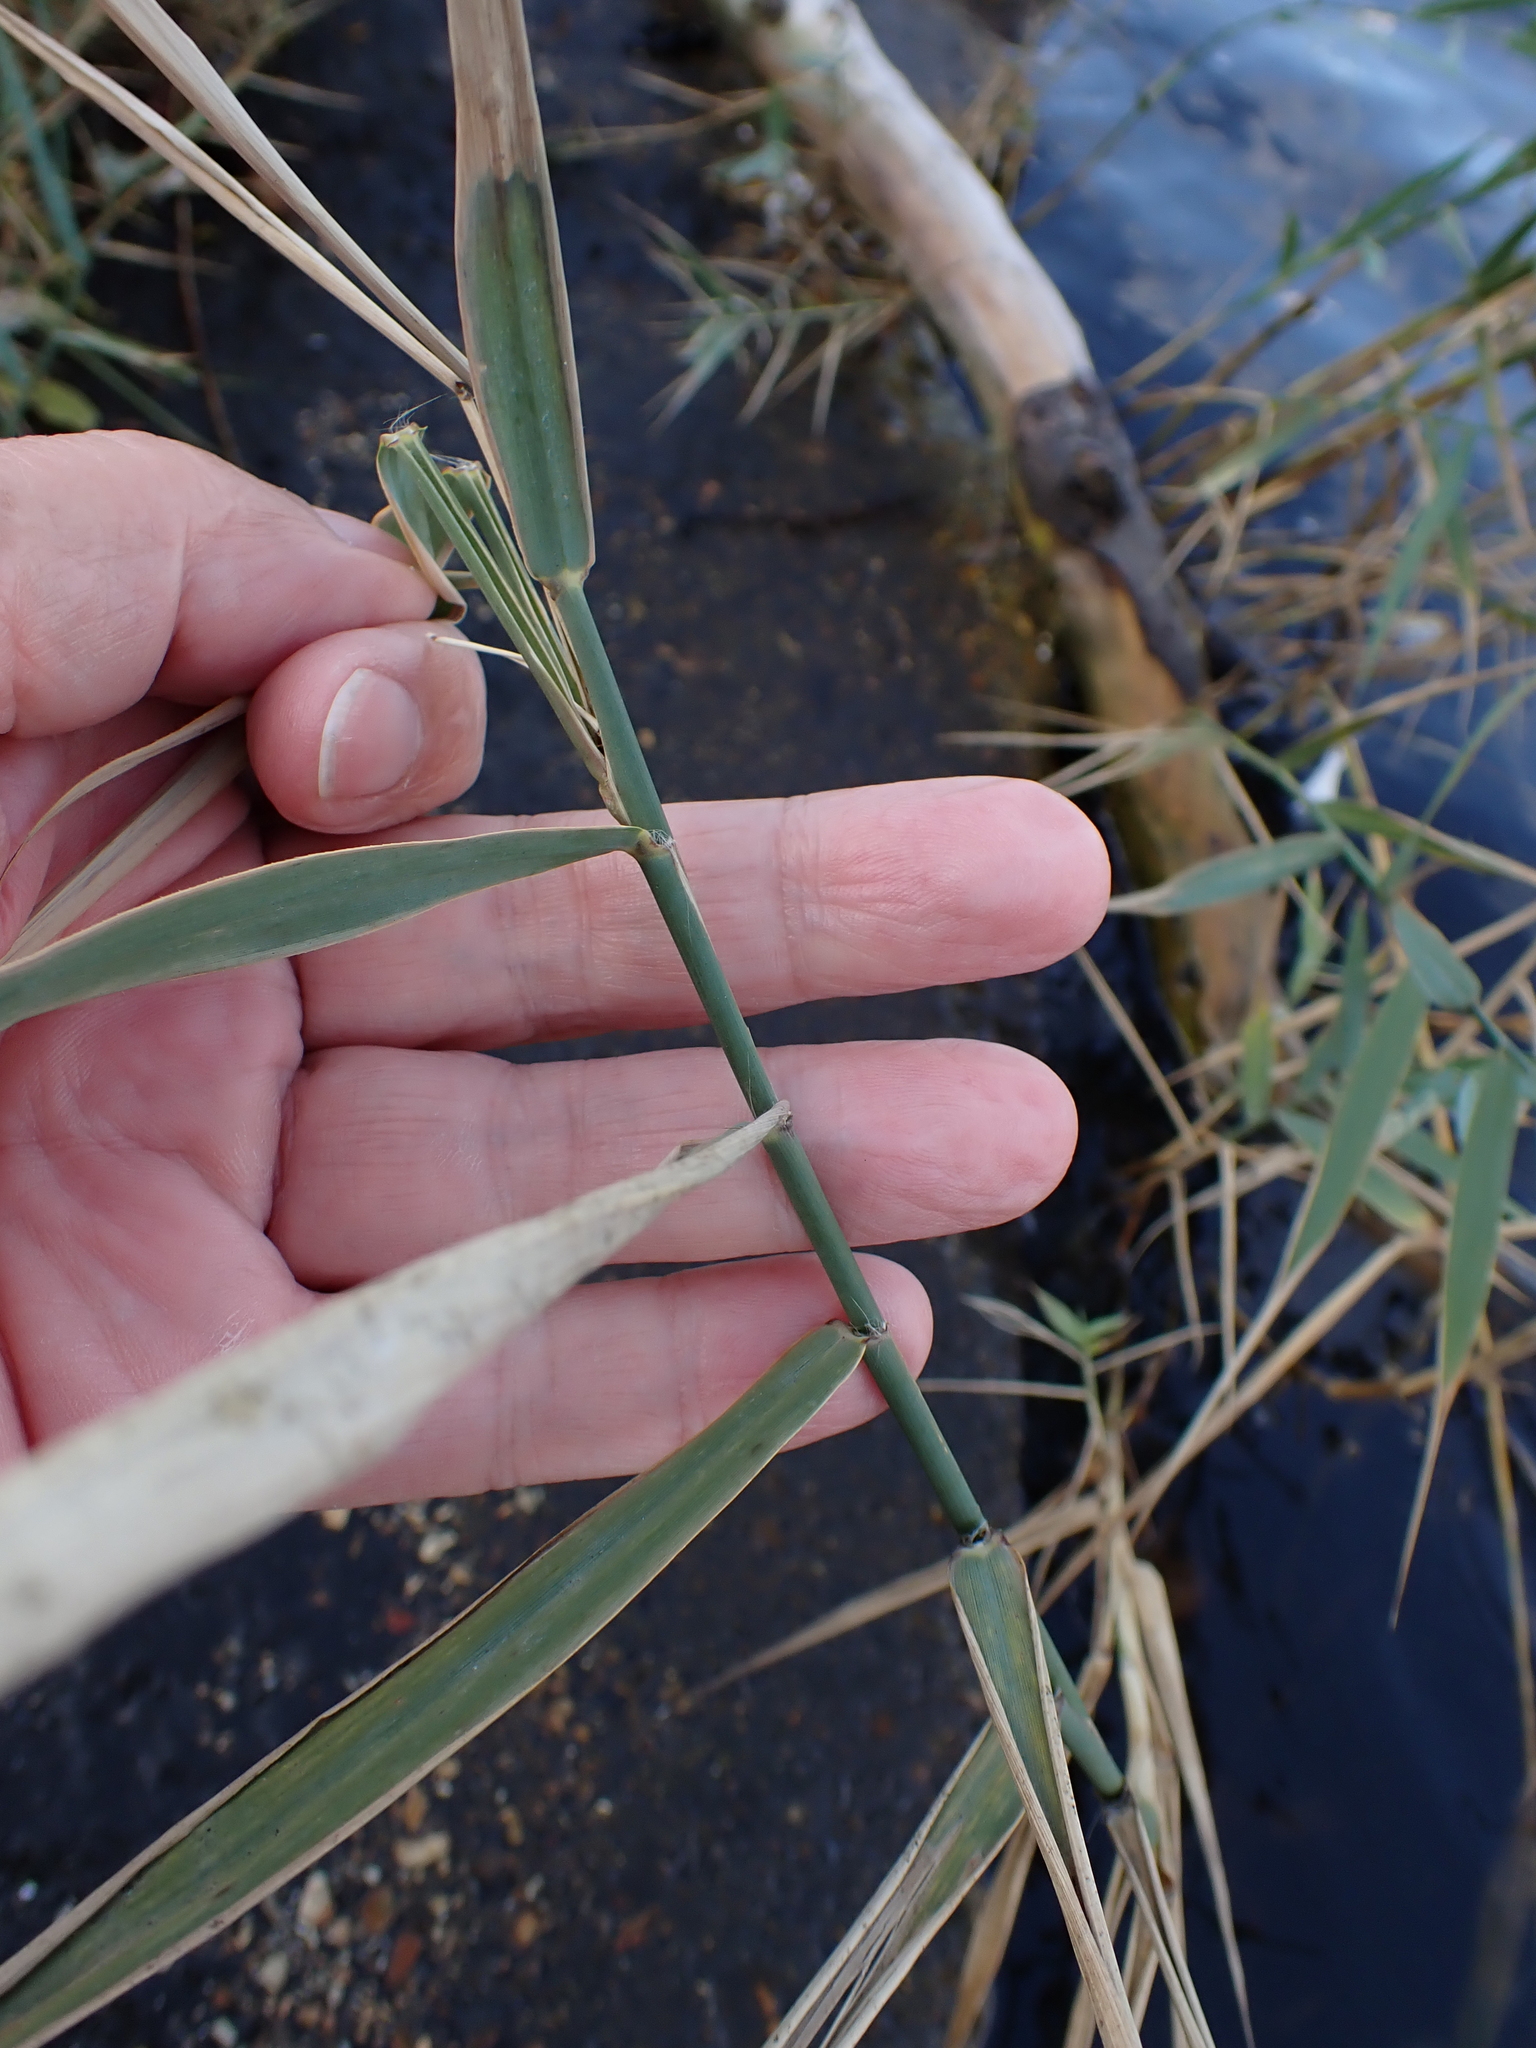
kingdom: Plantae
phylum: Tracheophyta
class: Liliopsida
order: Poales
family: Poaceae
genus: Phragmites
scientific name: Phragmites australis
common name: Common reed
